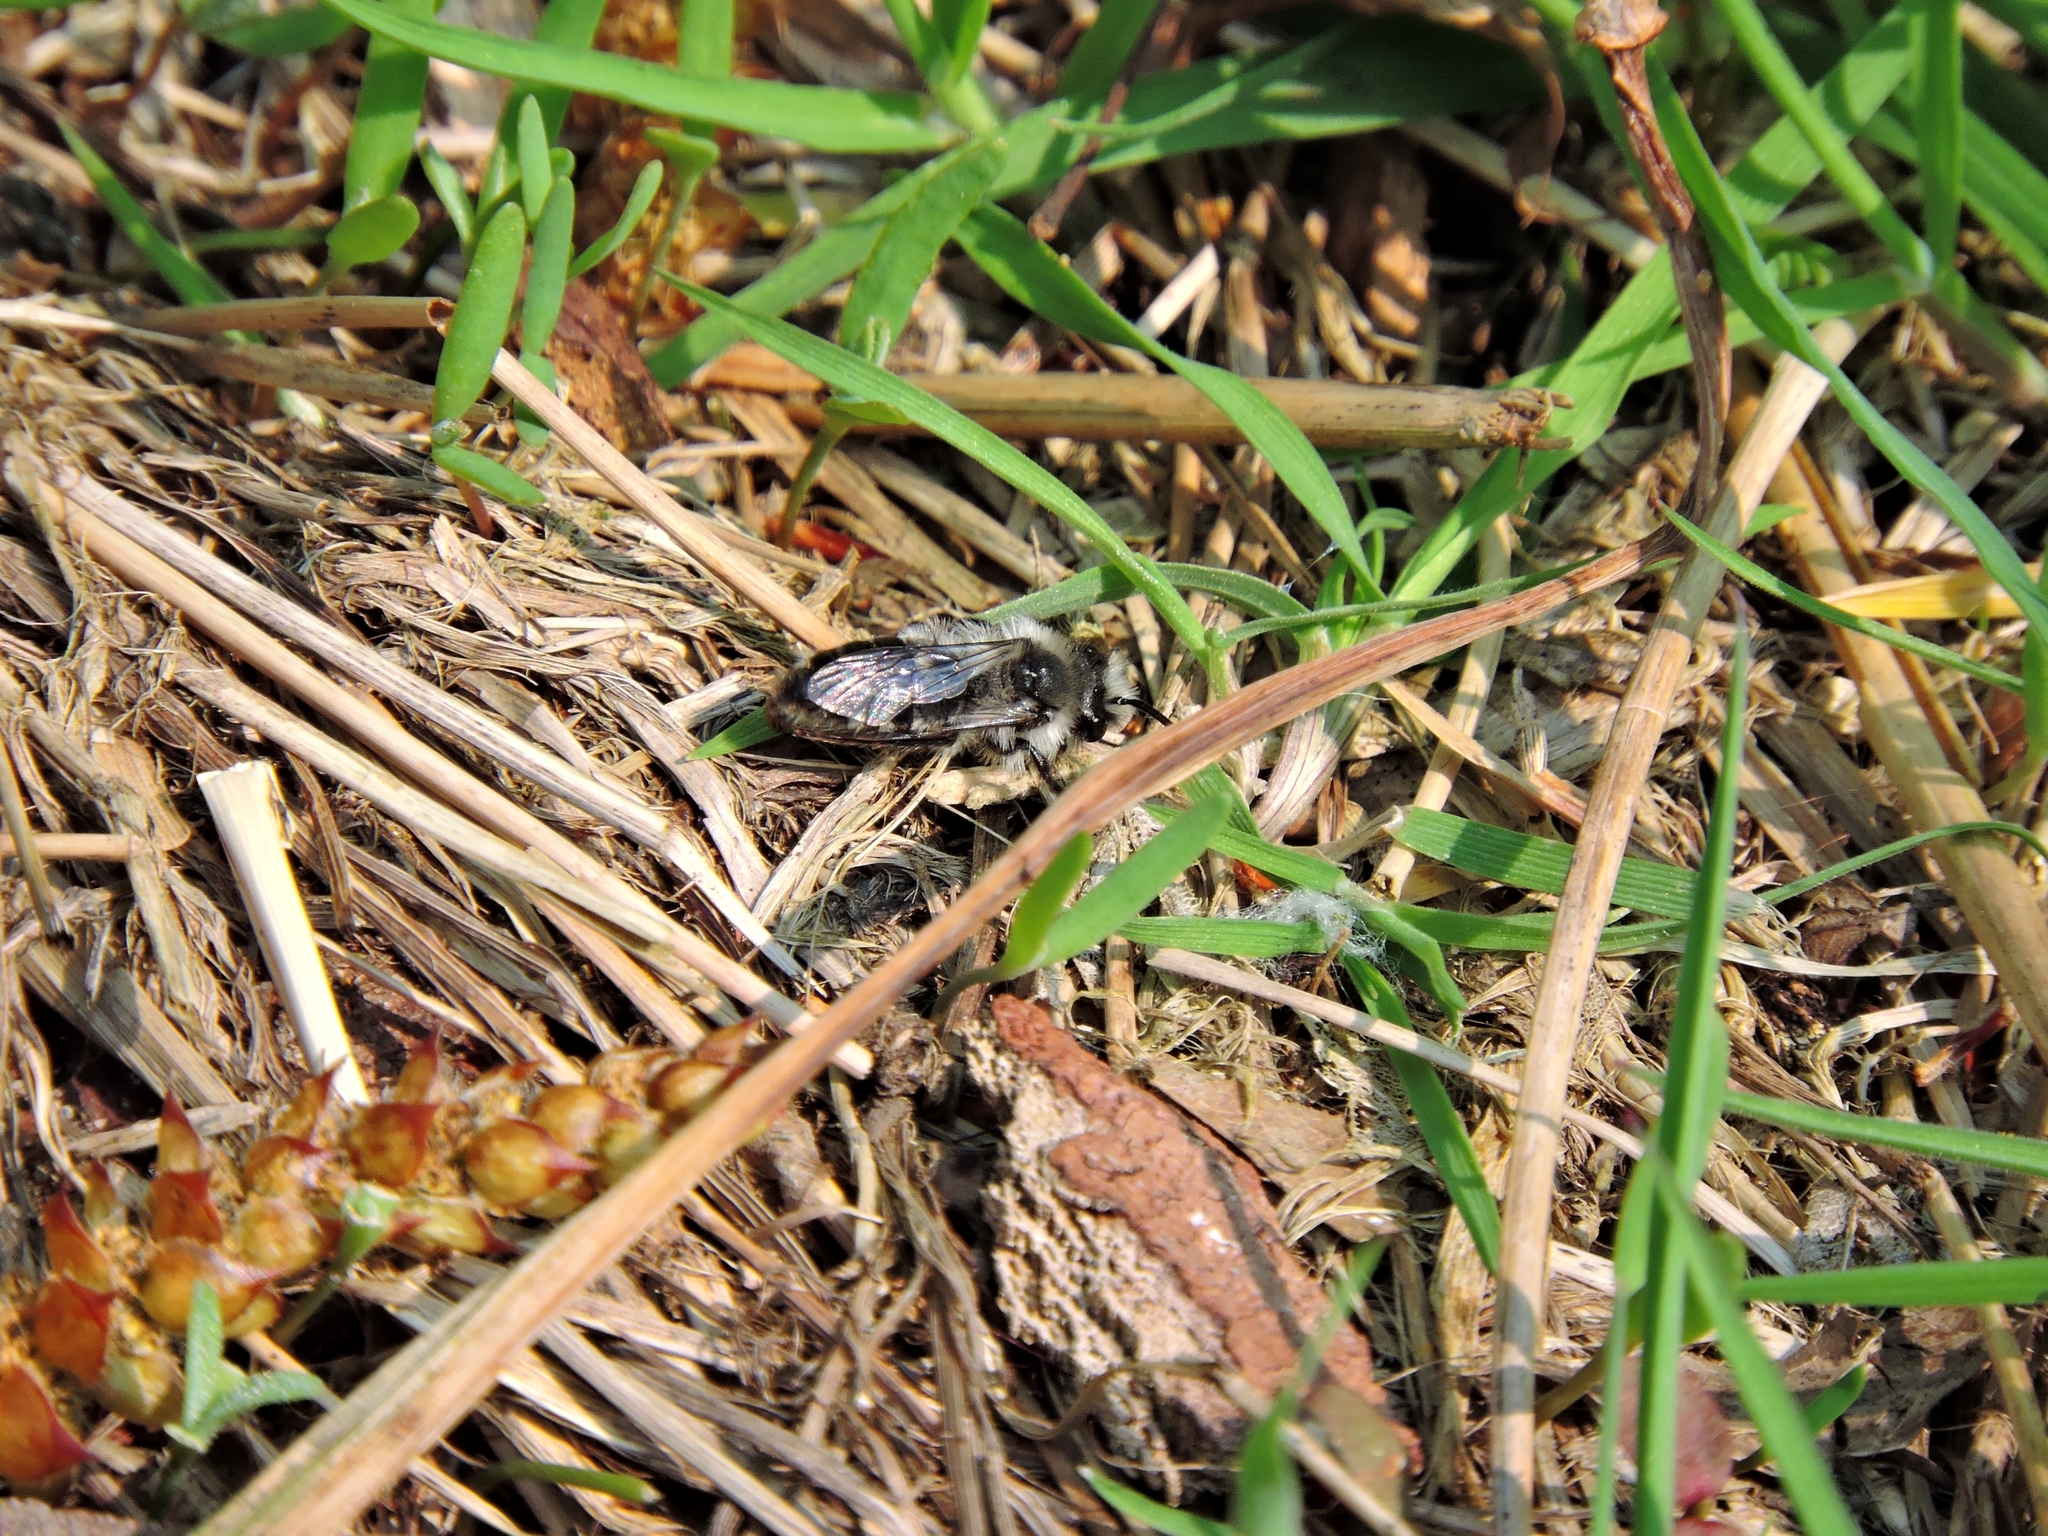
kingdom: Animalia
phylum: Arthropoda
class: Insecta
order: Hymenoptera
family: Andrenidae
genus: Andrena
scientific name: Andrena cineraria
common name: Ashy mining bee
